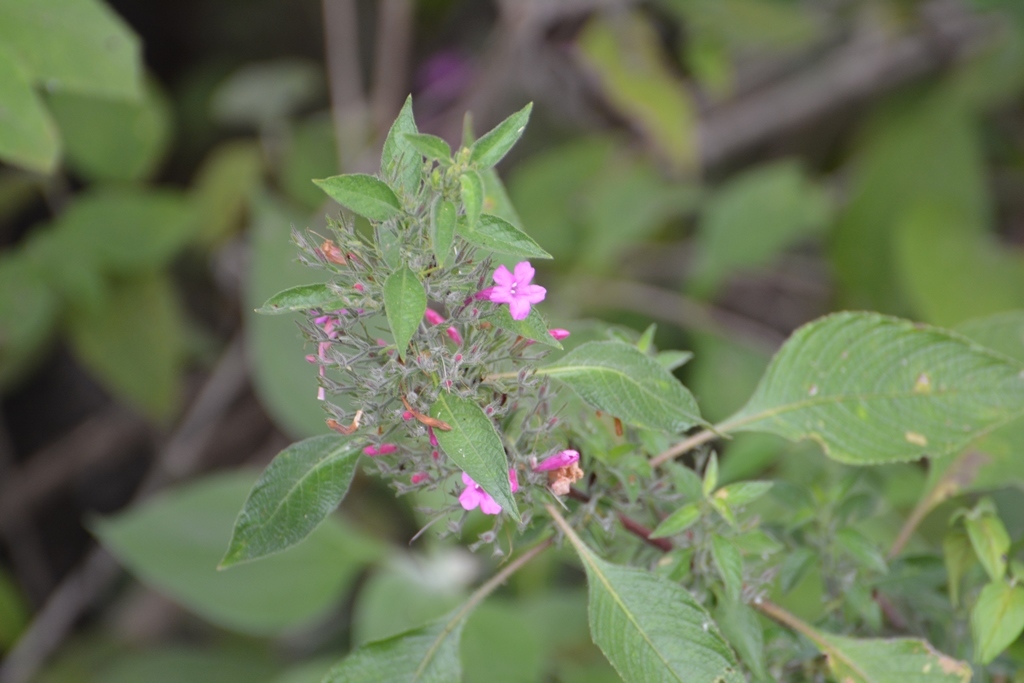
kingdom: Plantae
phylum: Tracheophyta
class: Magnoliopsida
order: Lamiales
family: Acanthaceae
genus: Ruellia
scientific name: Ruellia inundata
